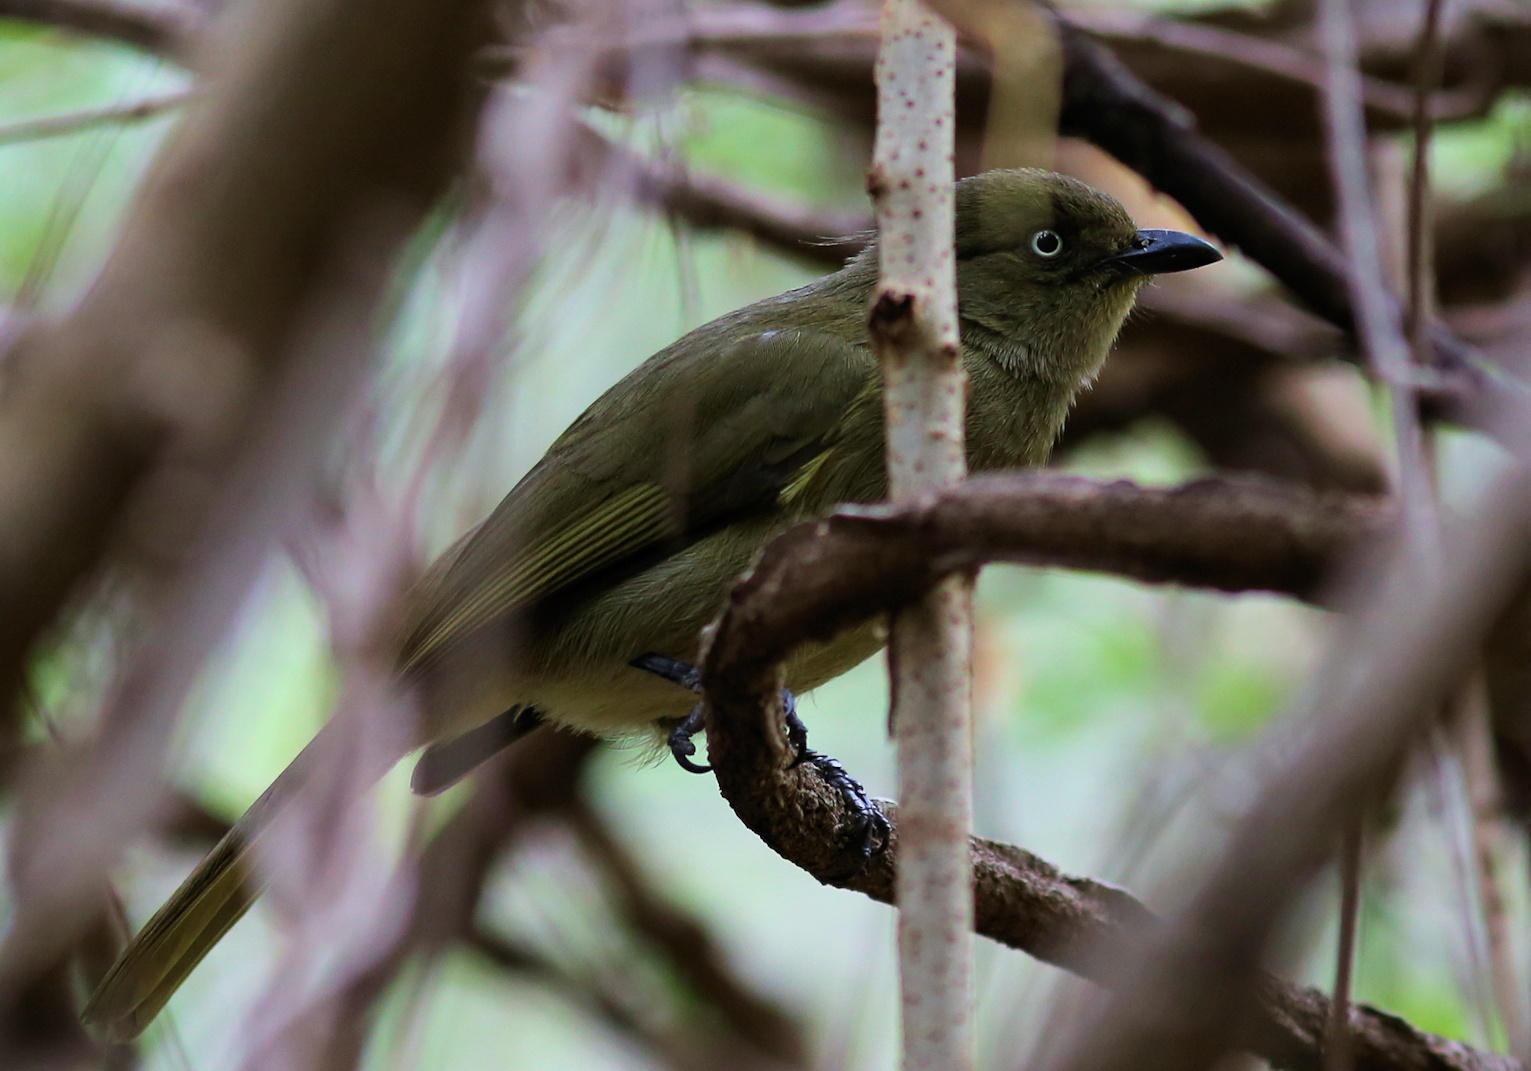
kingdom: Animalia
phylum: Chordata
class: Aves
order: Passeriformes
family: Pycnonotidae
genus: Andropadus
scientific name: Andropadus importunus
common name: Sombre greenbul
